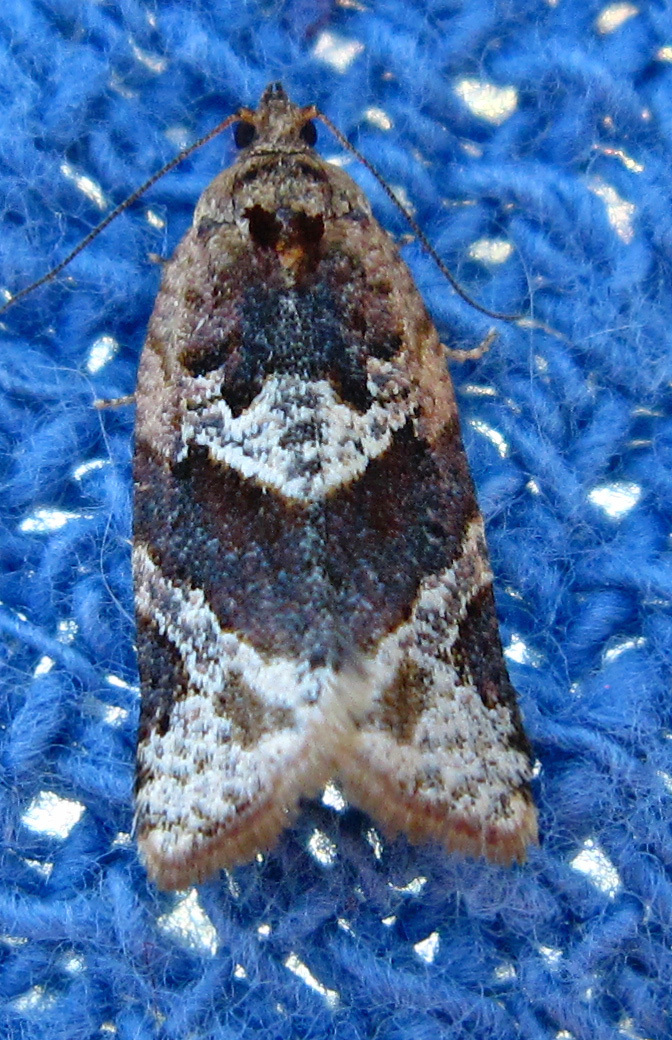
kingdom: Animalia
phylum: Arthropoda
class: Insecta
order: Lepidoptera
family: Tortricidae
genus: Argyrotaenia
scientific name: Argyrotaenia velutinana
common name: Red-banded leafroller moth
